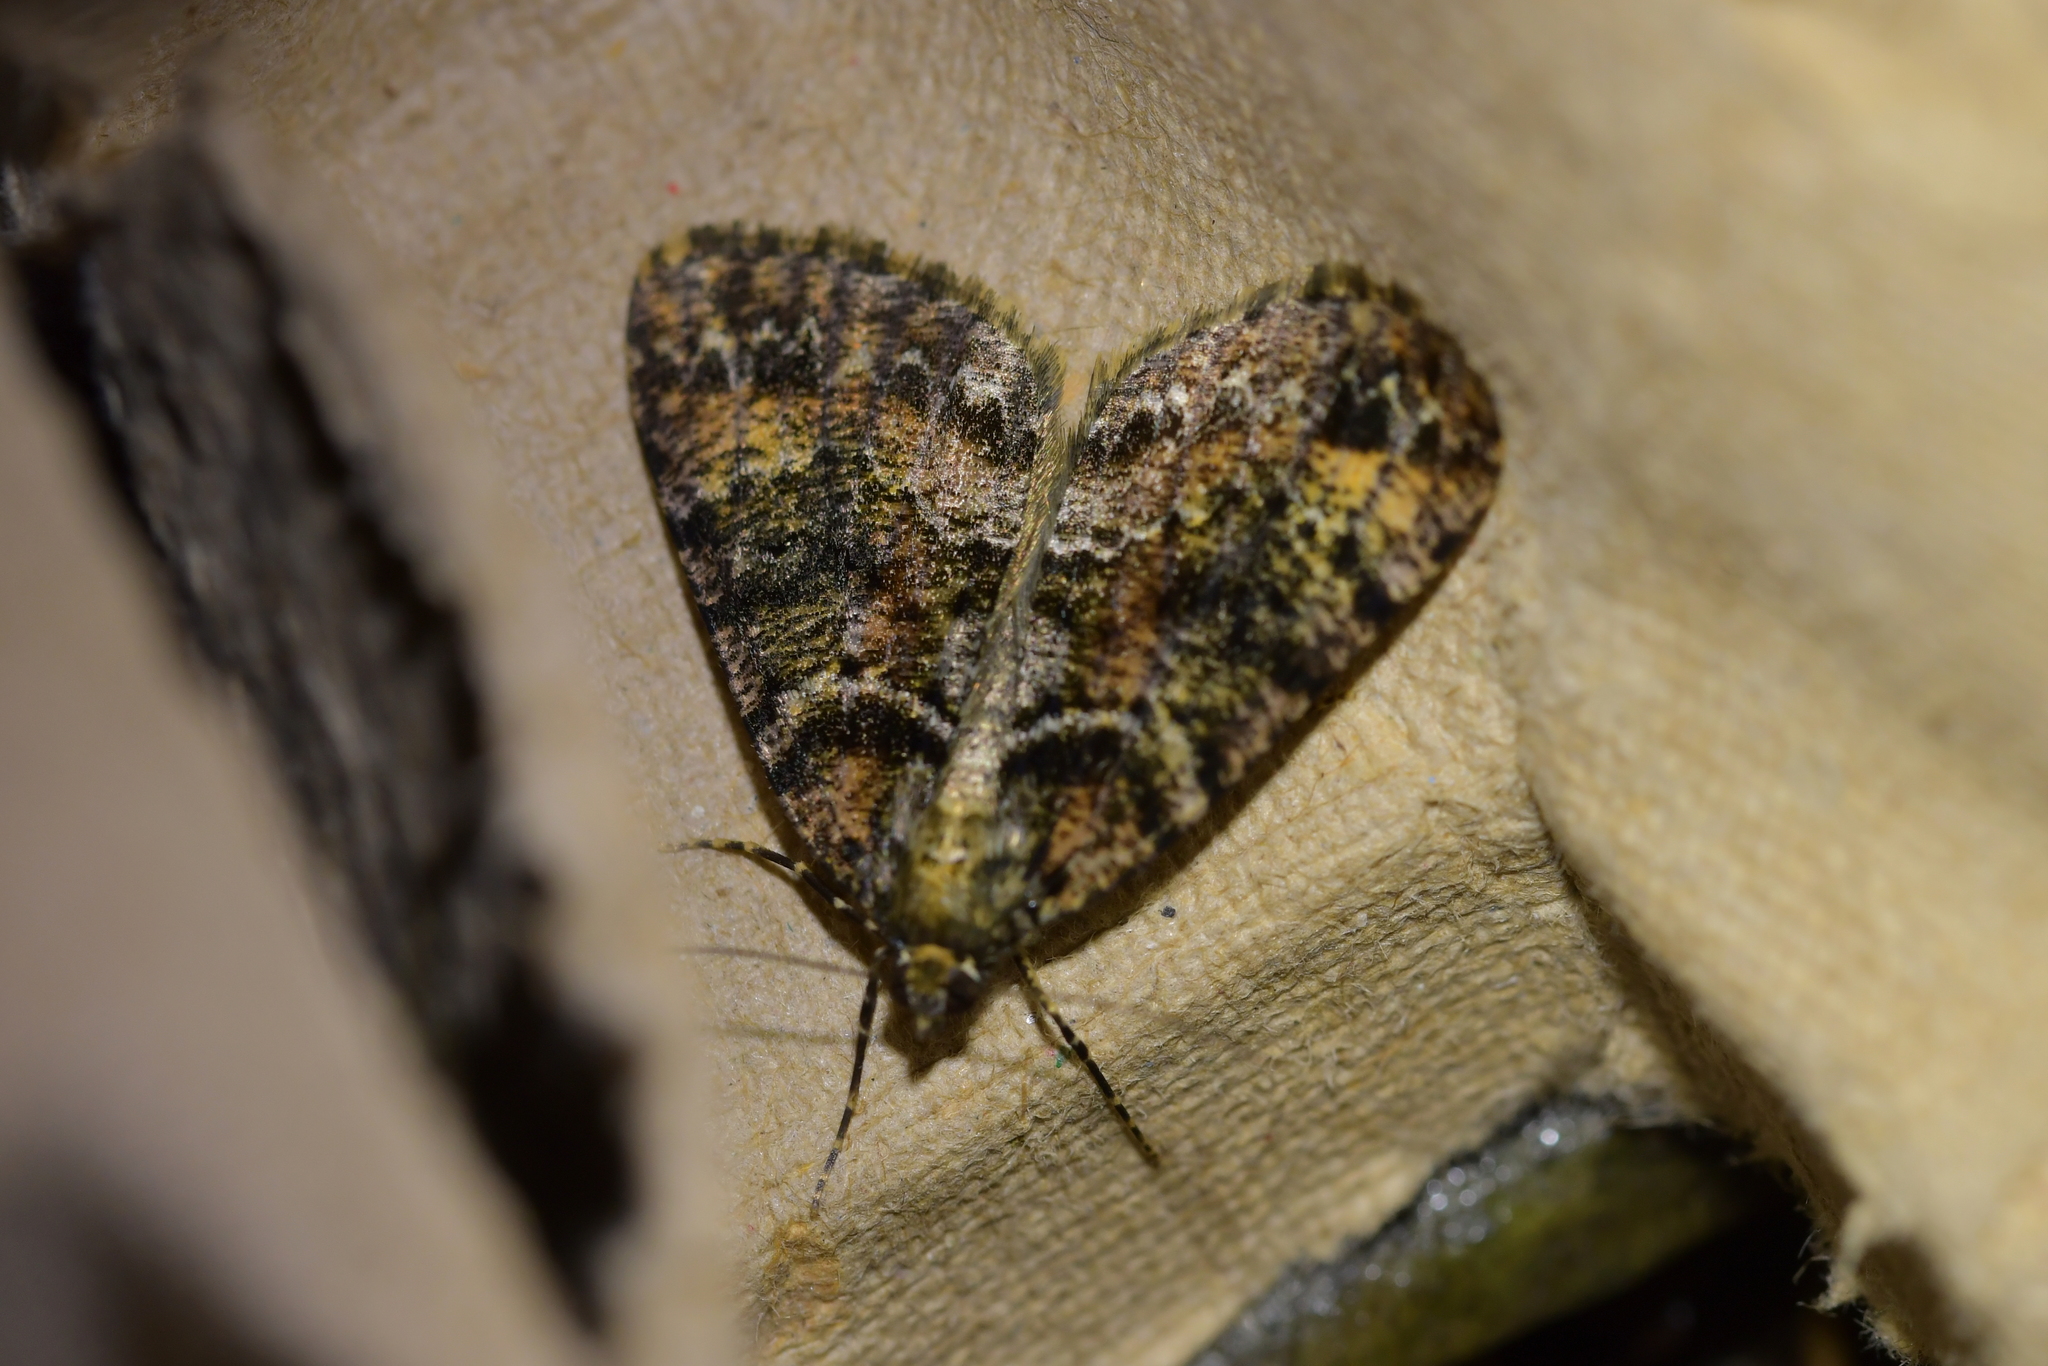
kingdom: Animalia
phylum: Arthropoda
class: Insecta
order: Lepidoptera
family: Geometridae
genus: Pseudocoremia
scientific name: Pseudocoremia productata
